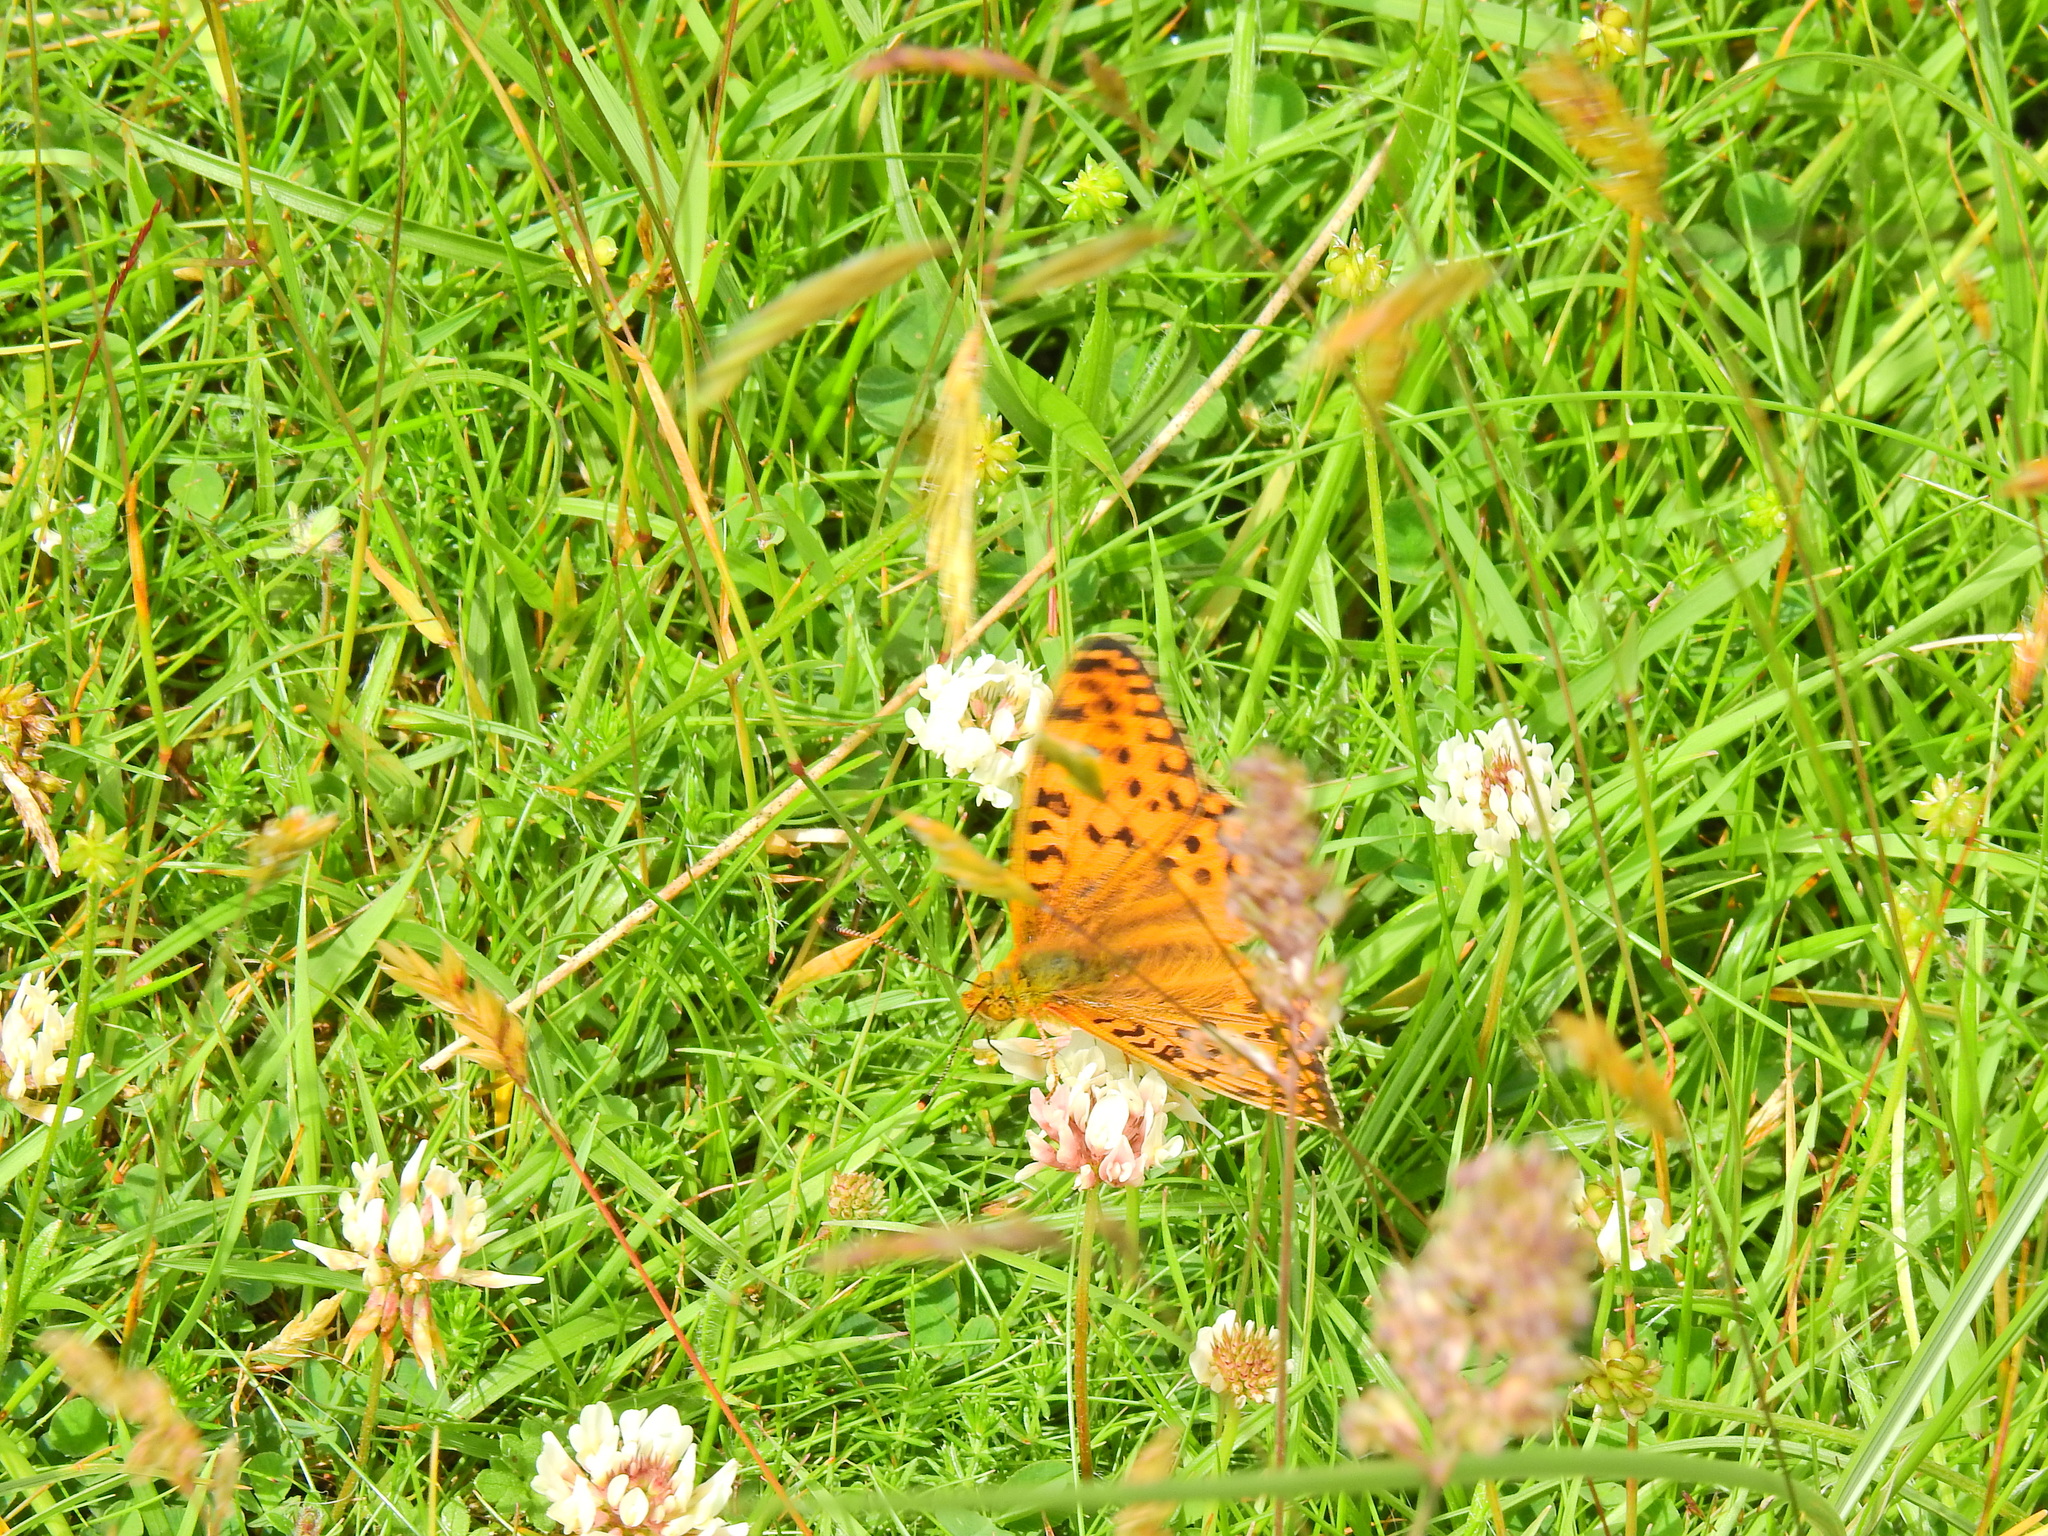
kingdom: Animalia
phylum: Arthropoda
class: Insecta
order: Lepidoptera
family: Nymphalidae
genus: Speyeria
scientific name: Speyeria aglaja
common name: Dark green fritillary
